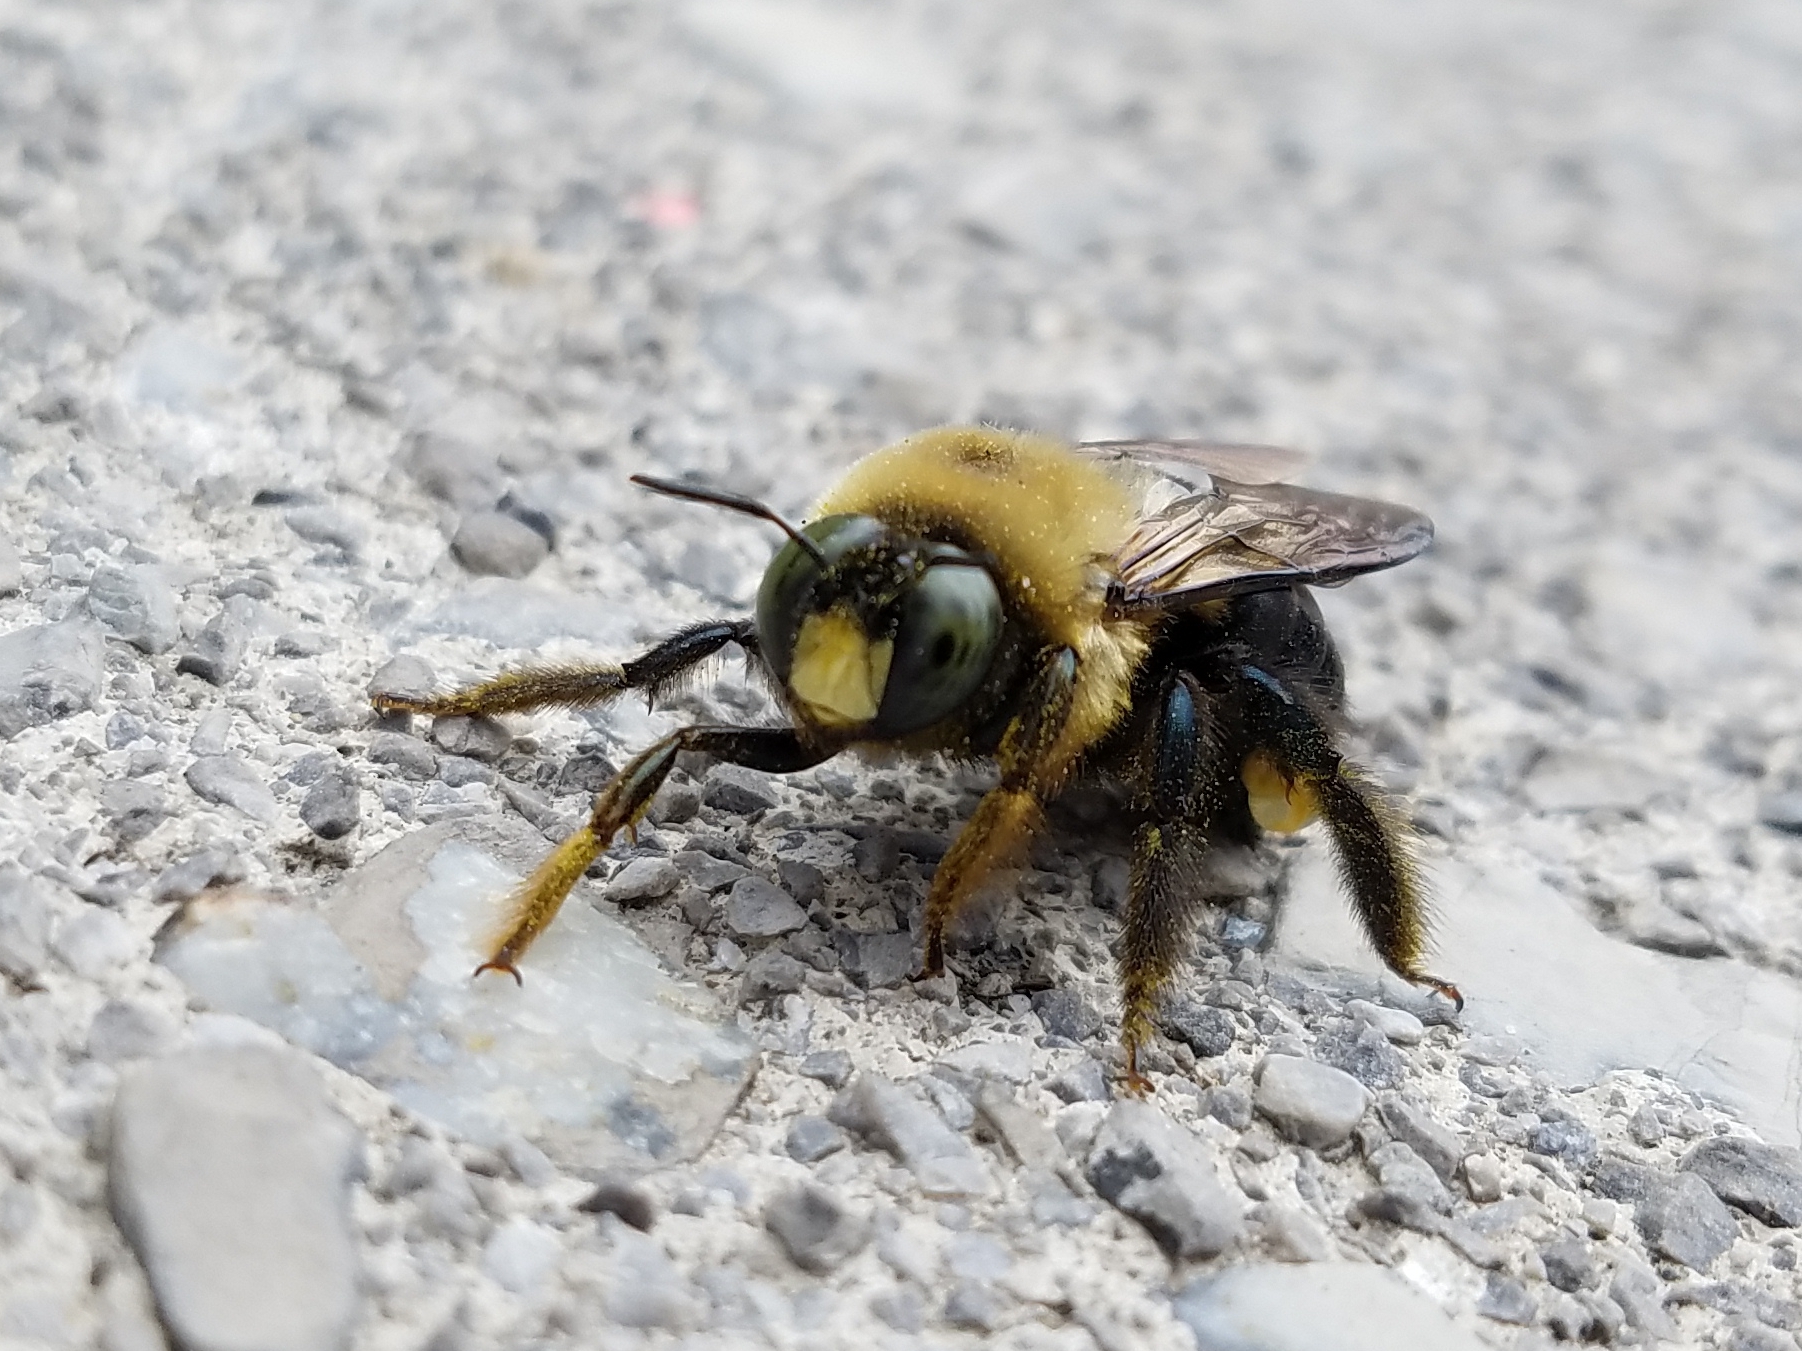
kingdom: Animalia
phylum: Arthropoda
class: Insecta
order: Hymenoptera
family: Apidae
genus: Xylocopa
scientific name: Xylocopa virginica
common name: Carpenter bee
